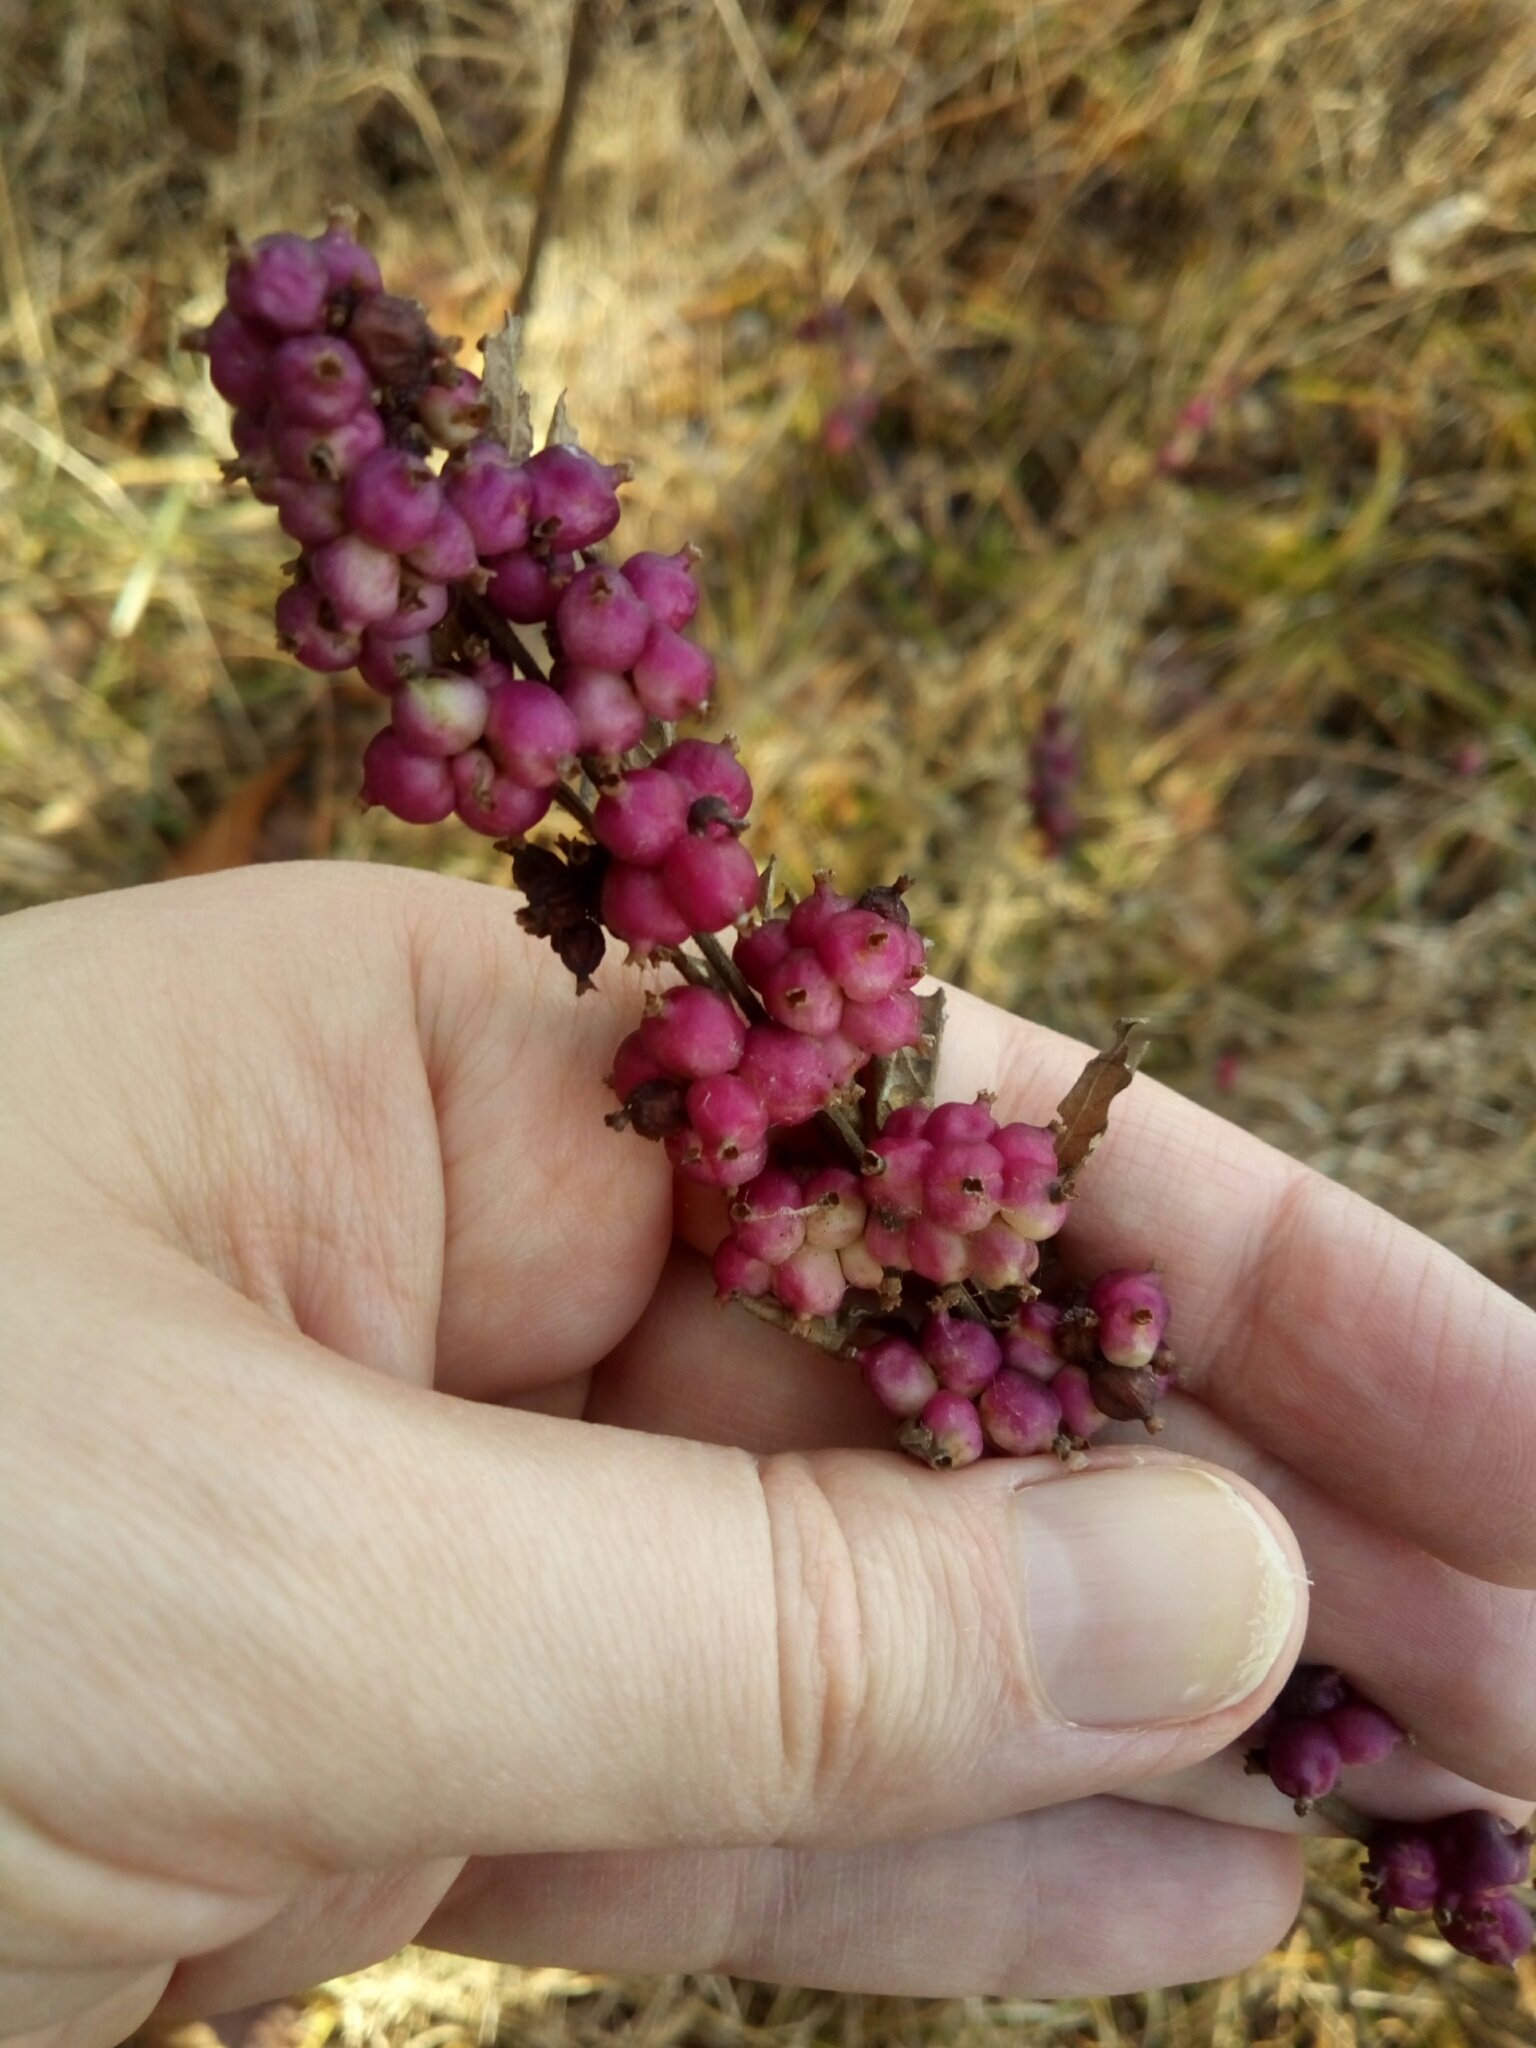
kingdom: Plantae
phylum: Tracheophyta
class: Magnoliopsida
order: Dipsacales
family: Caprifoliaceae
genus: Symphoricarpos
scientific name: Symphoricarpos orbiculatus
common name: Coralberry
